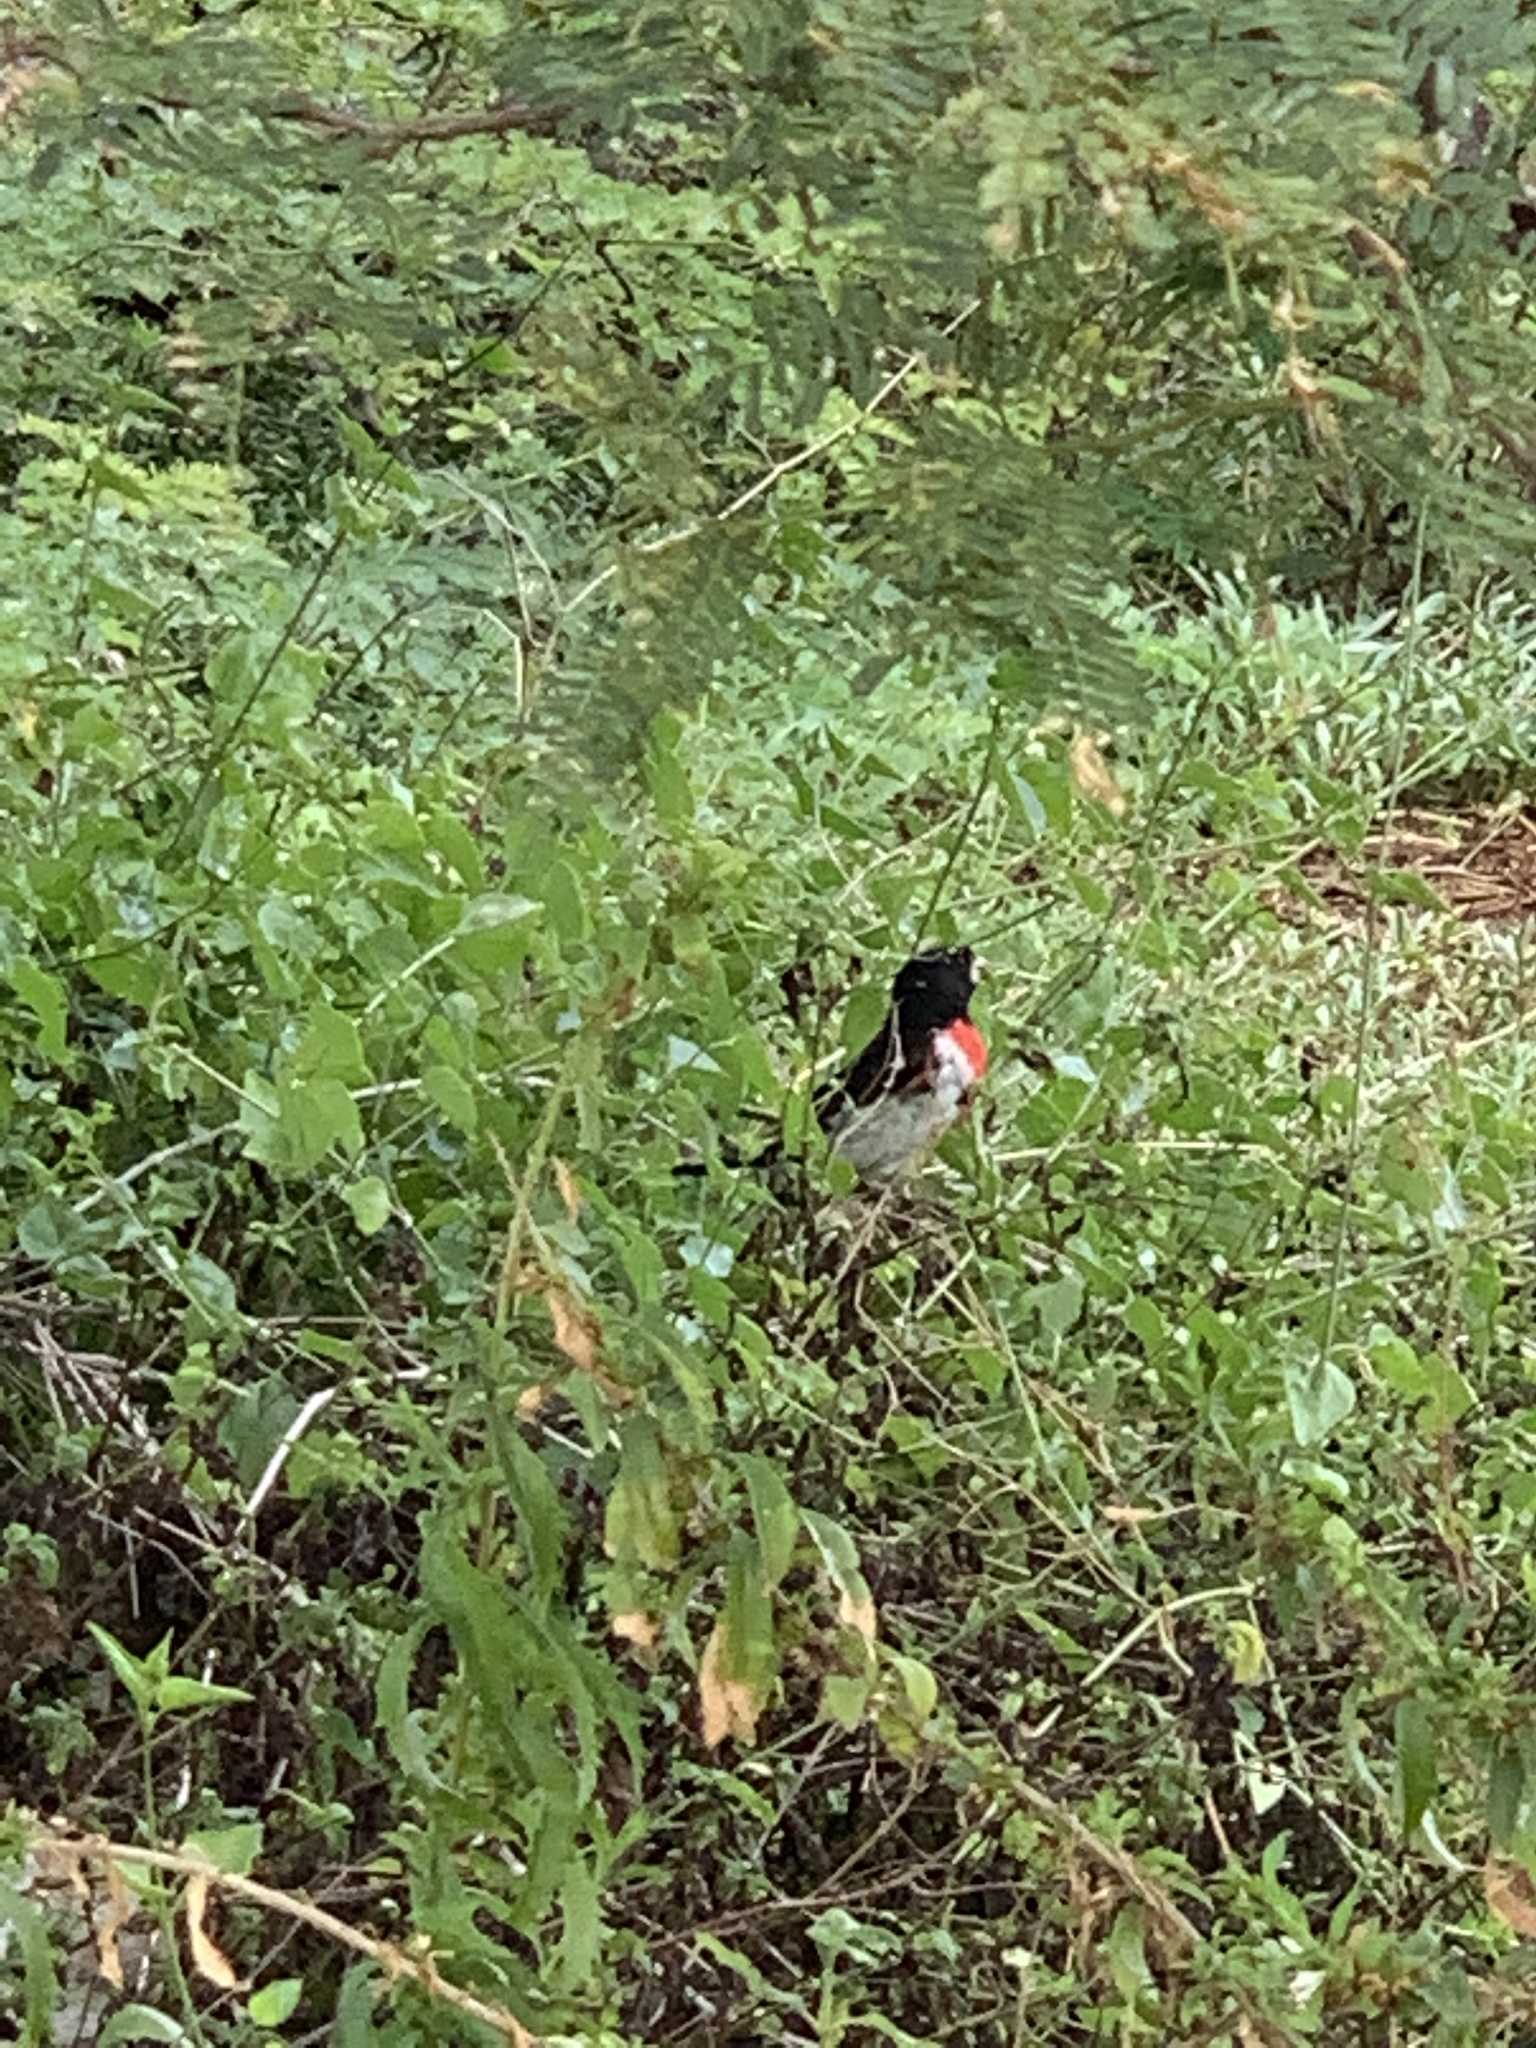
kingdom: Animalia
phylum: Chordata
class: Aves
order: Passeriformes
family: Cardinalidae
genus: Pheucticus
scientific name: Pheucticus ludovicianus
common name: Rose-breasted grosbeak
